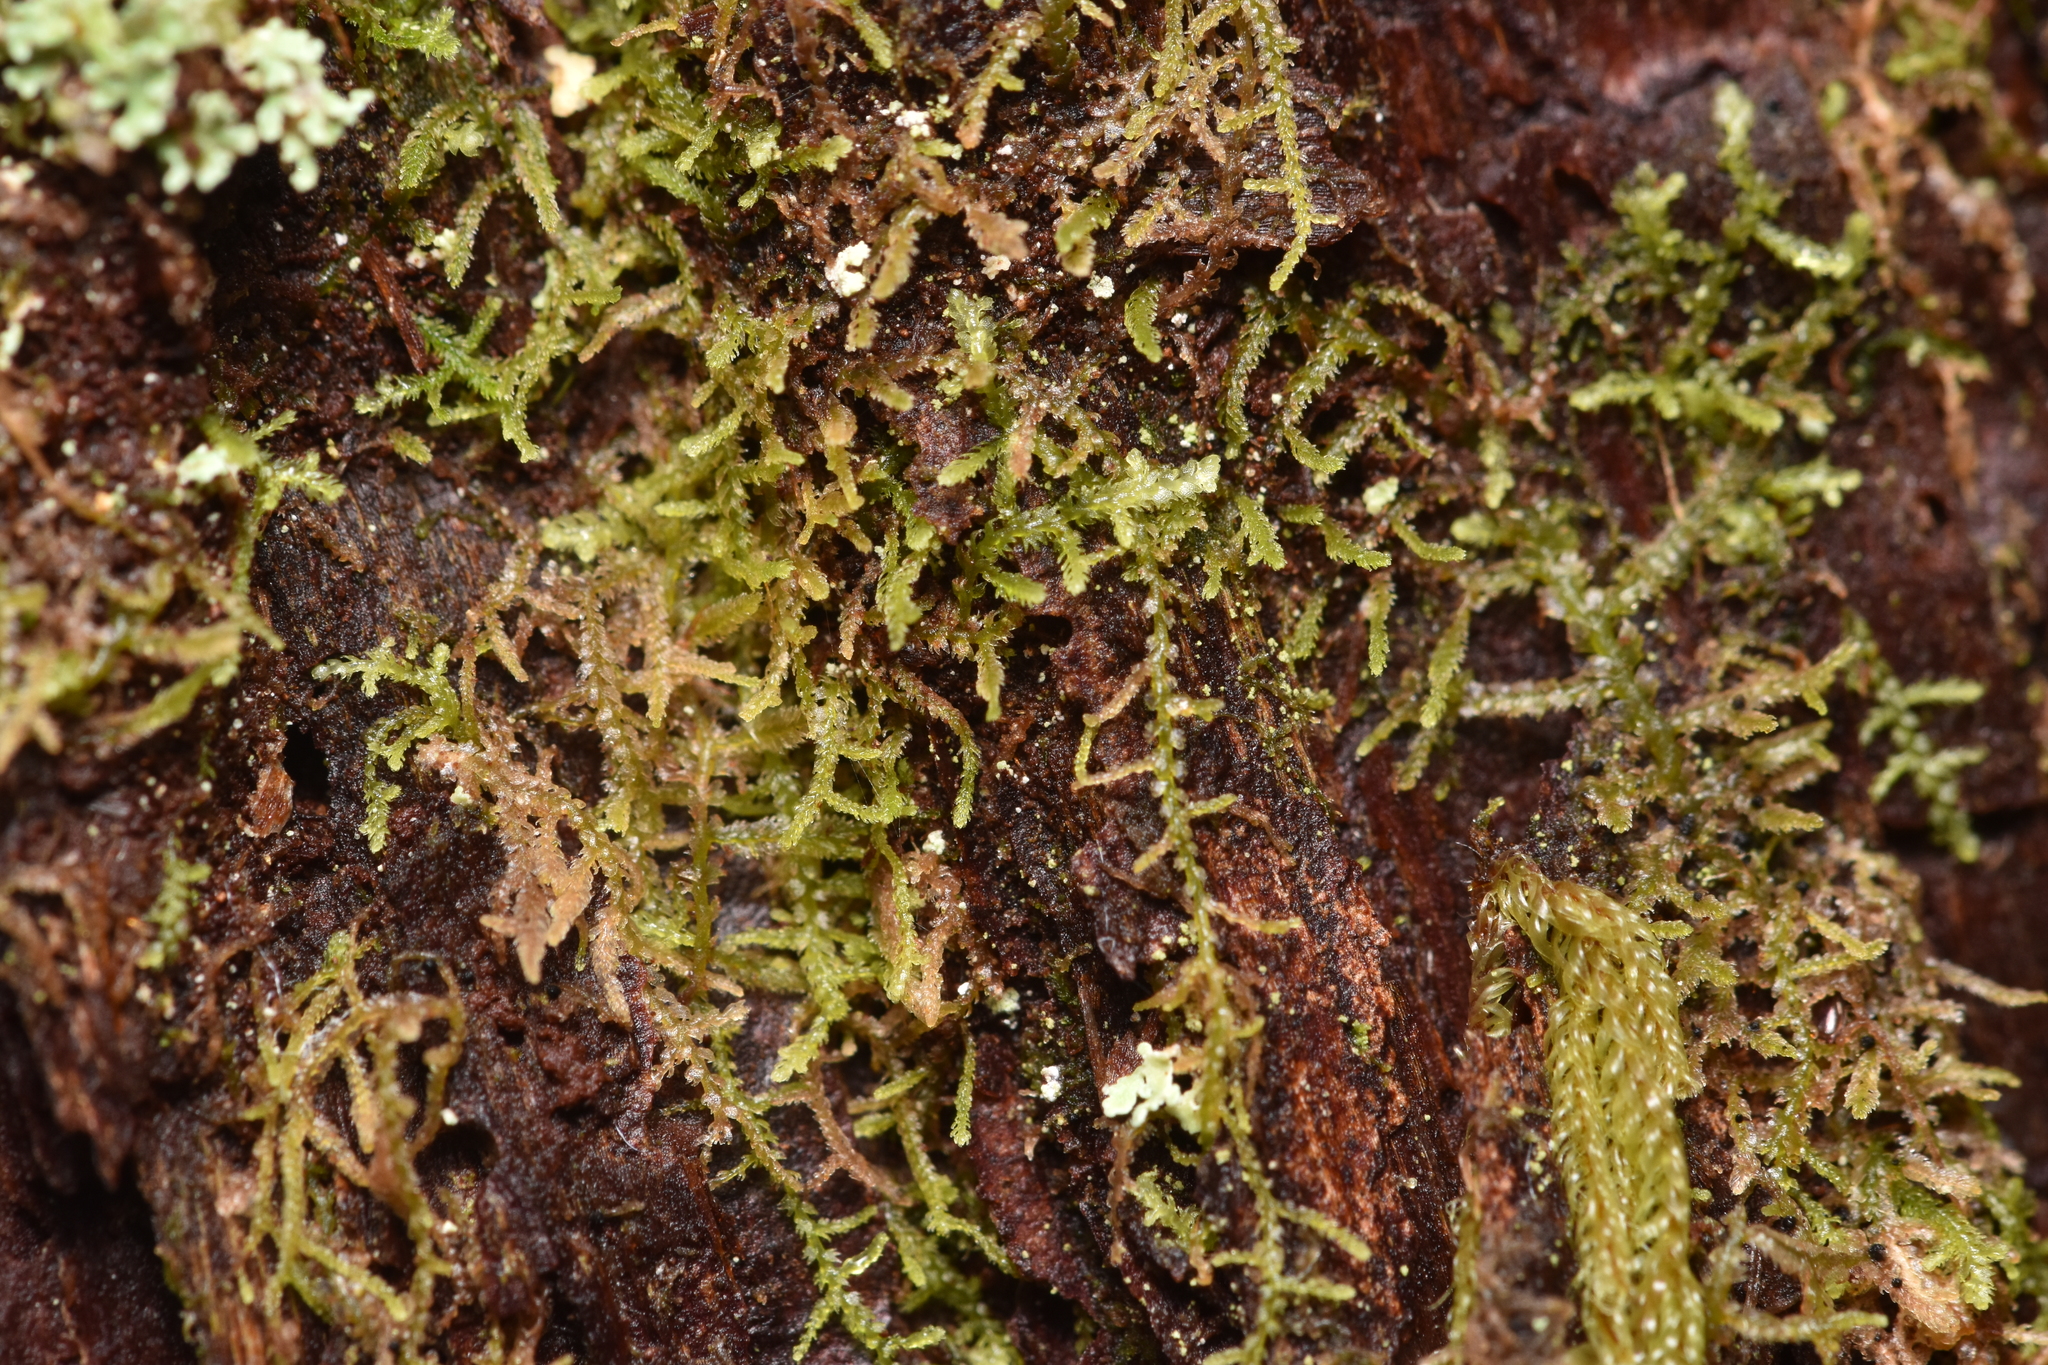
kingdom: Plantae
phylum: Marchantiophyta
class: Jungermanniopsida
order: Jungermanniales
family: Lepidoziaceae
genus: Lepidozia
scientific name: Lepidozia reptans
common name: Creeping fingerwort
